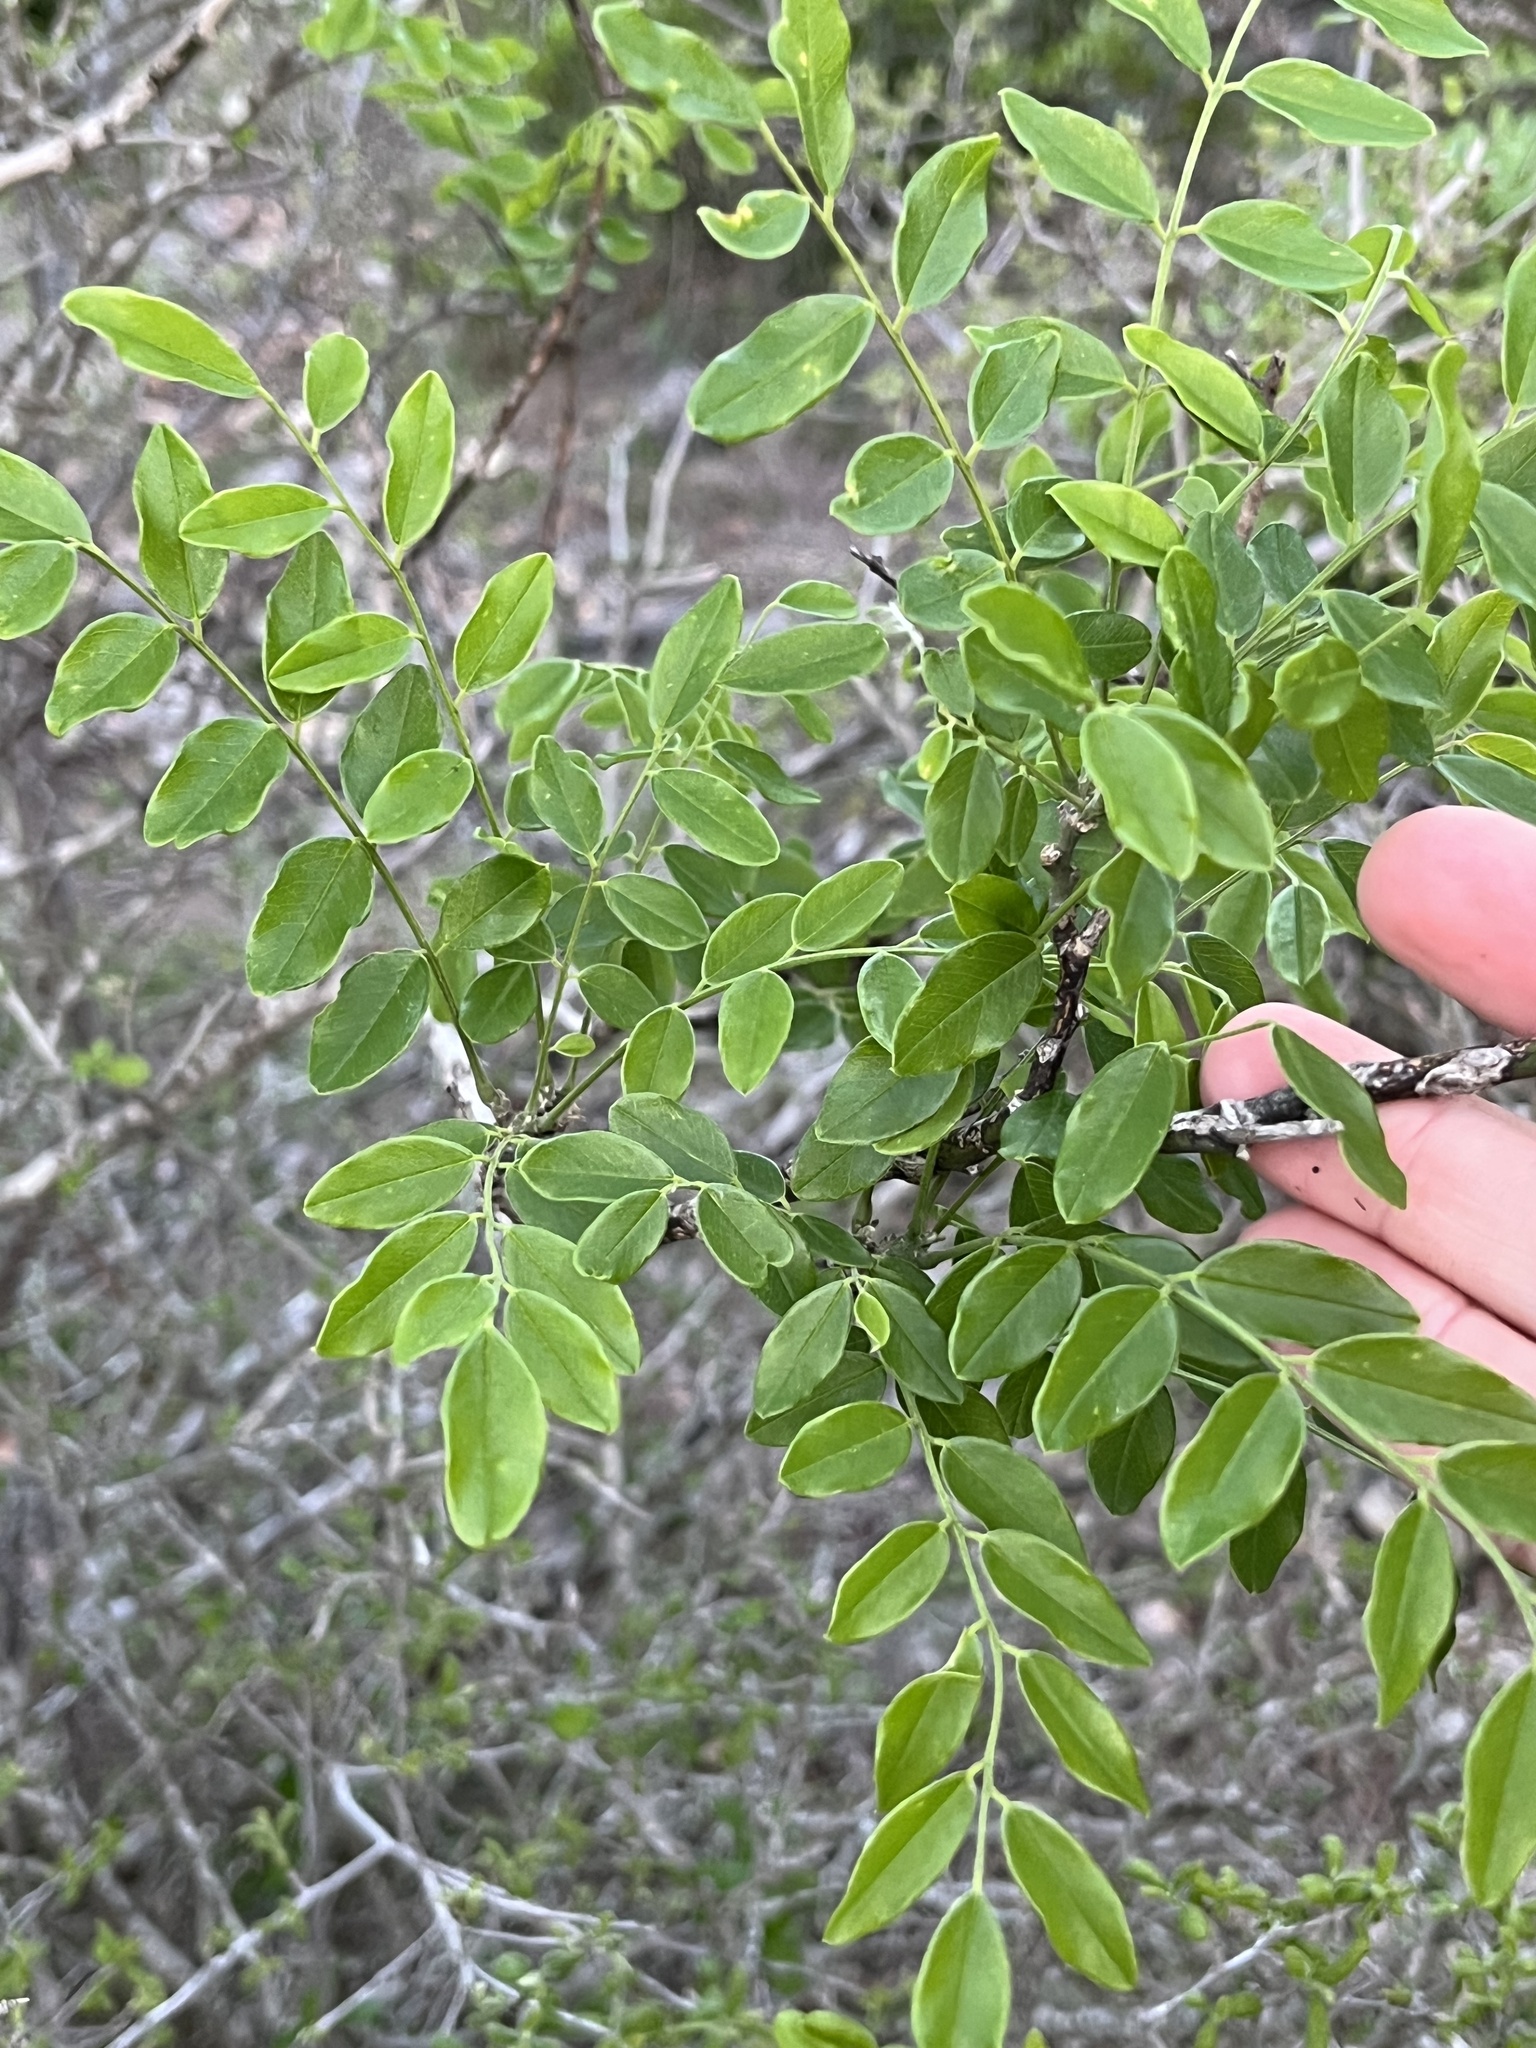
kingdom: Plantae
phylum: Tracheophyta
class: Magnoliopsida
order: Fabales
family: Fabaceae
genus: Styphnolobium
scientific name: Styphnolobium affine
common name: Texas sophora
